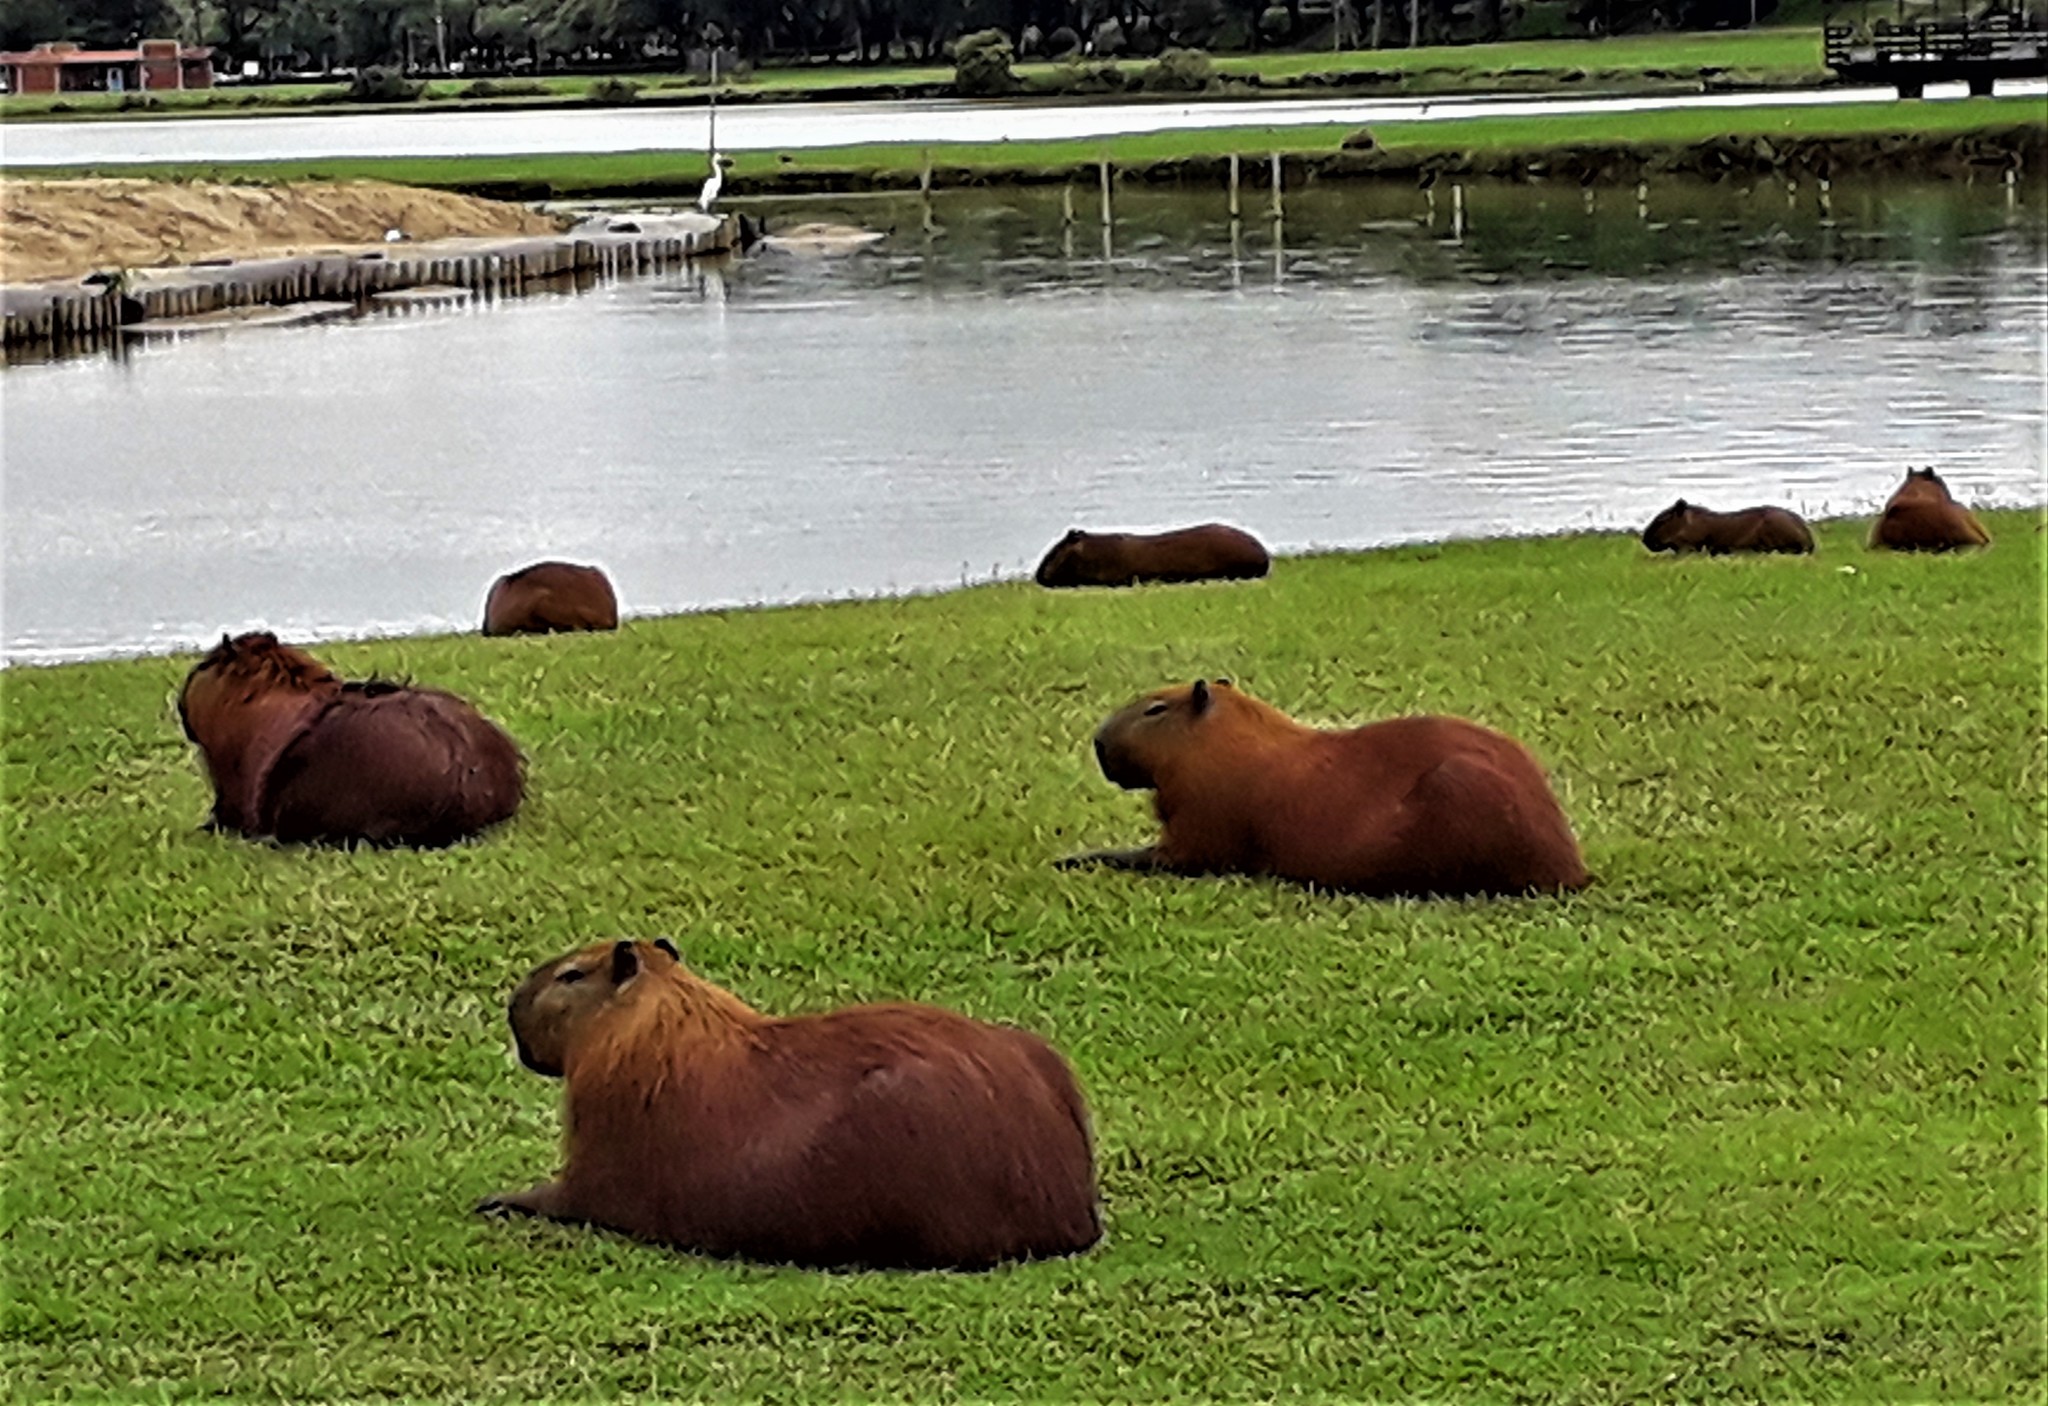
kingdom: Animalia
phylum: Chordata
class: Mammalia
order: Rodentia
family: Caviidae
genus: Hydrochoerus
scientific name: Hydrochoerus hydrochaeris
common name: Capybara
